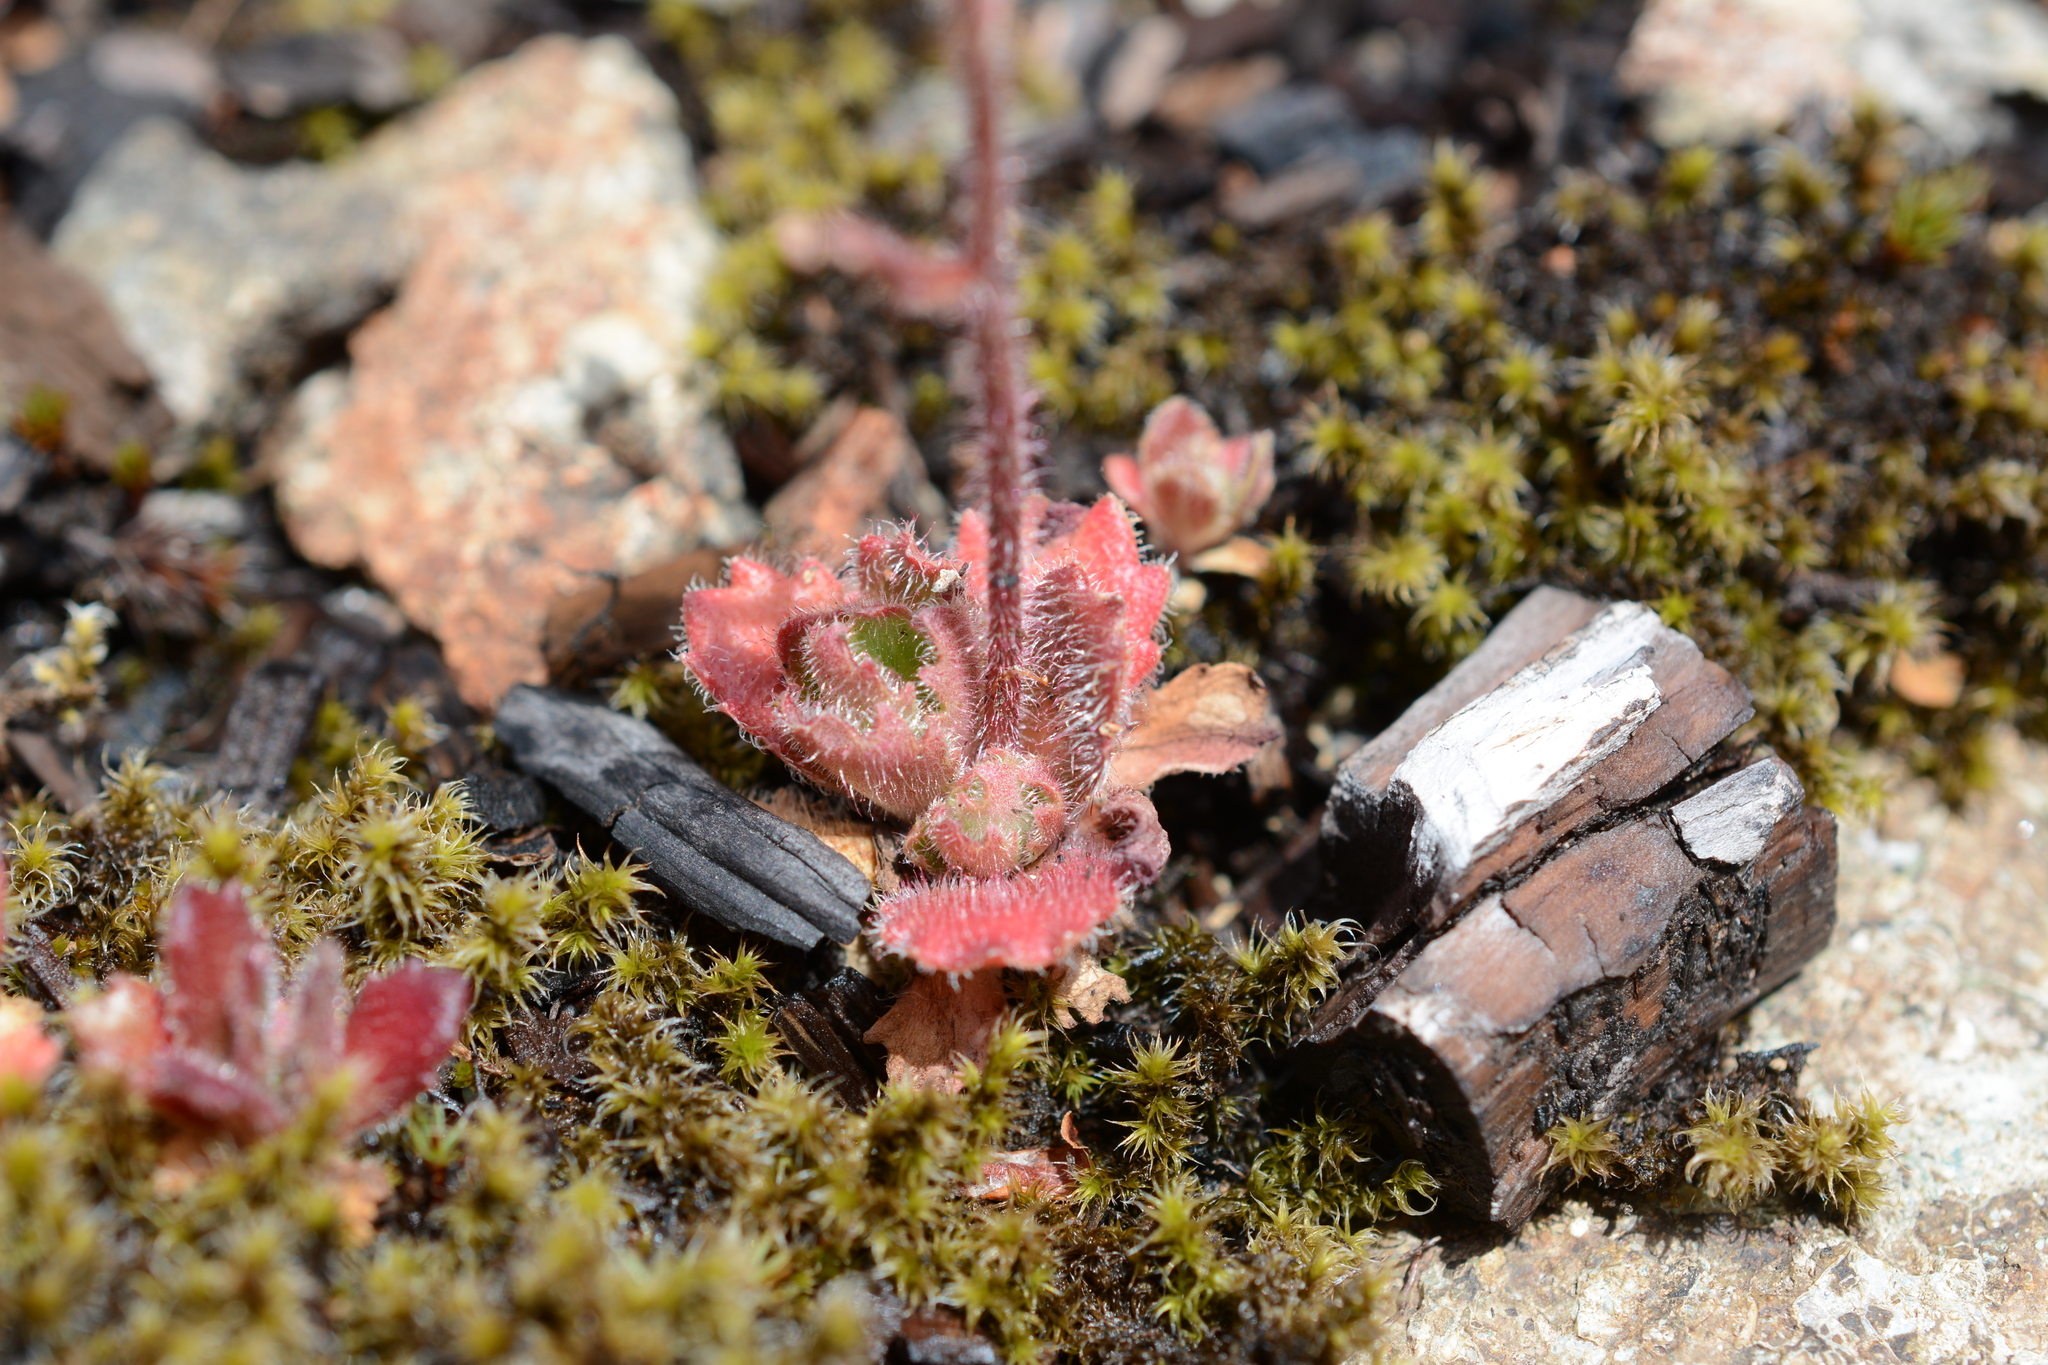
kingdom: Plantae
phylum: Tracheophyta
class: Magnoliopsida
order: Saxifragales
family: Saxifragaceae
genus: Micranthes
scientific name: Micranthes ferruginea
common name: Rusty saxifrage
